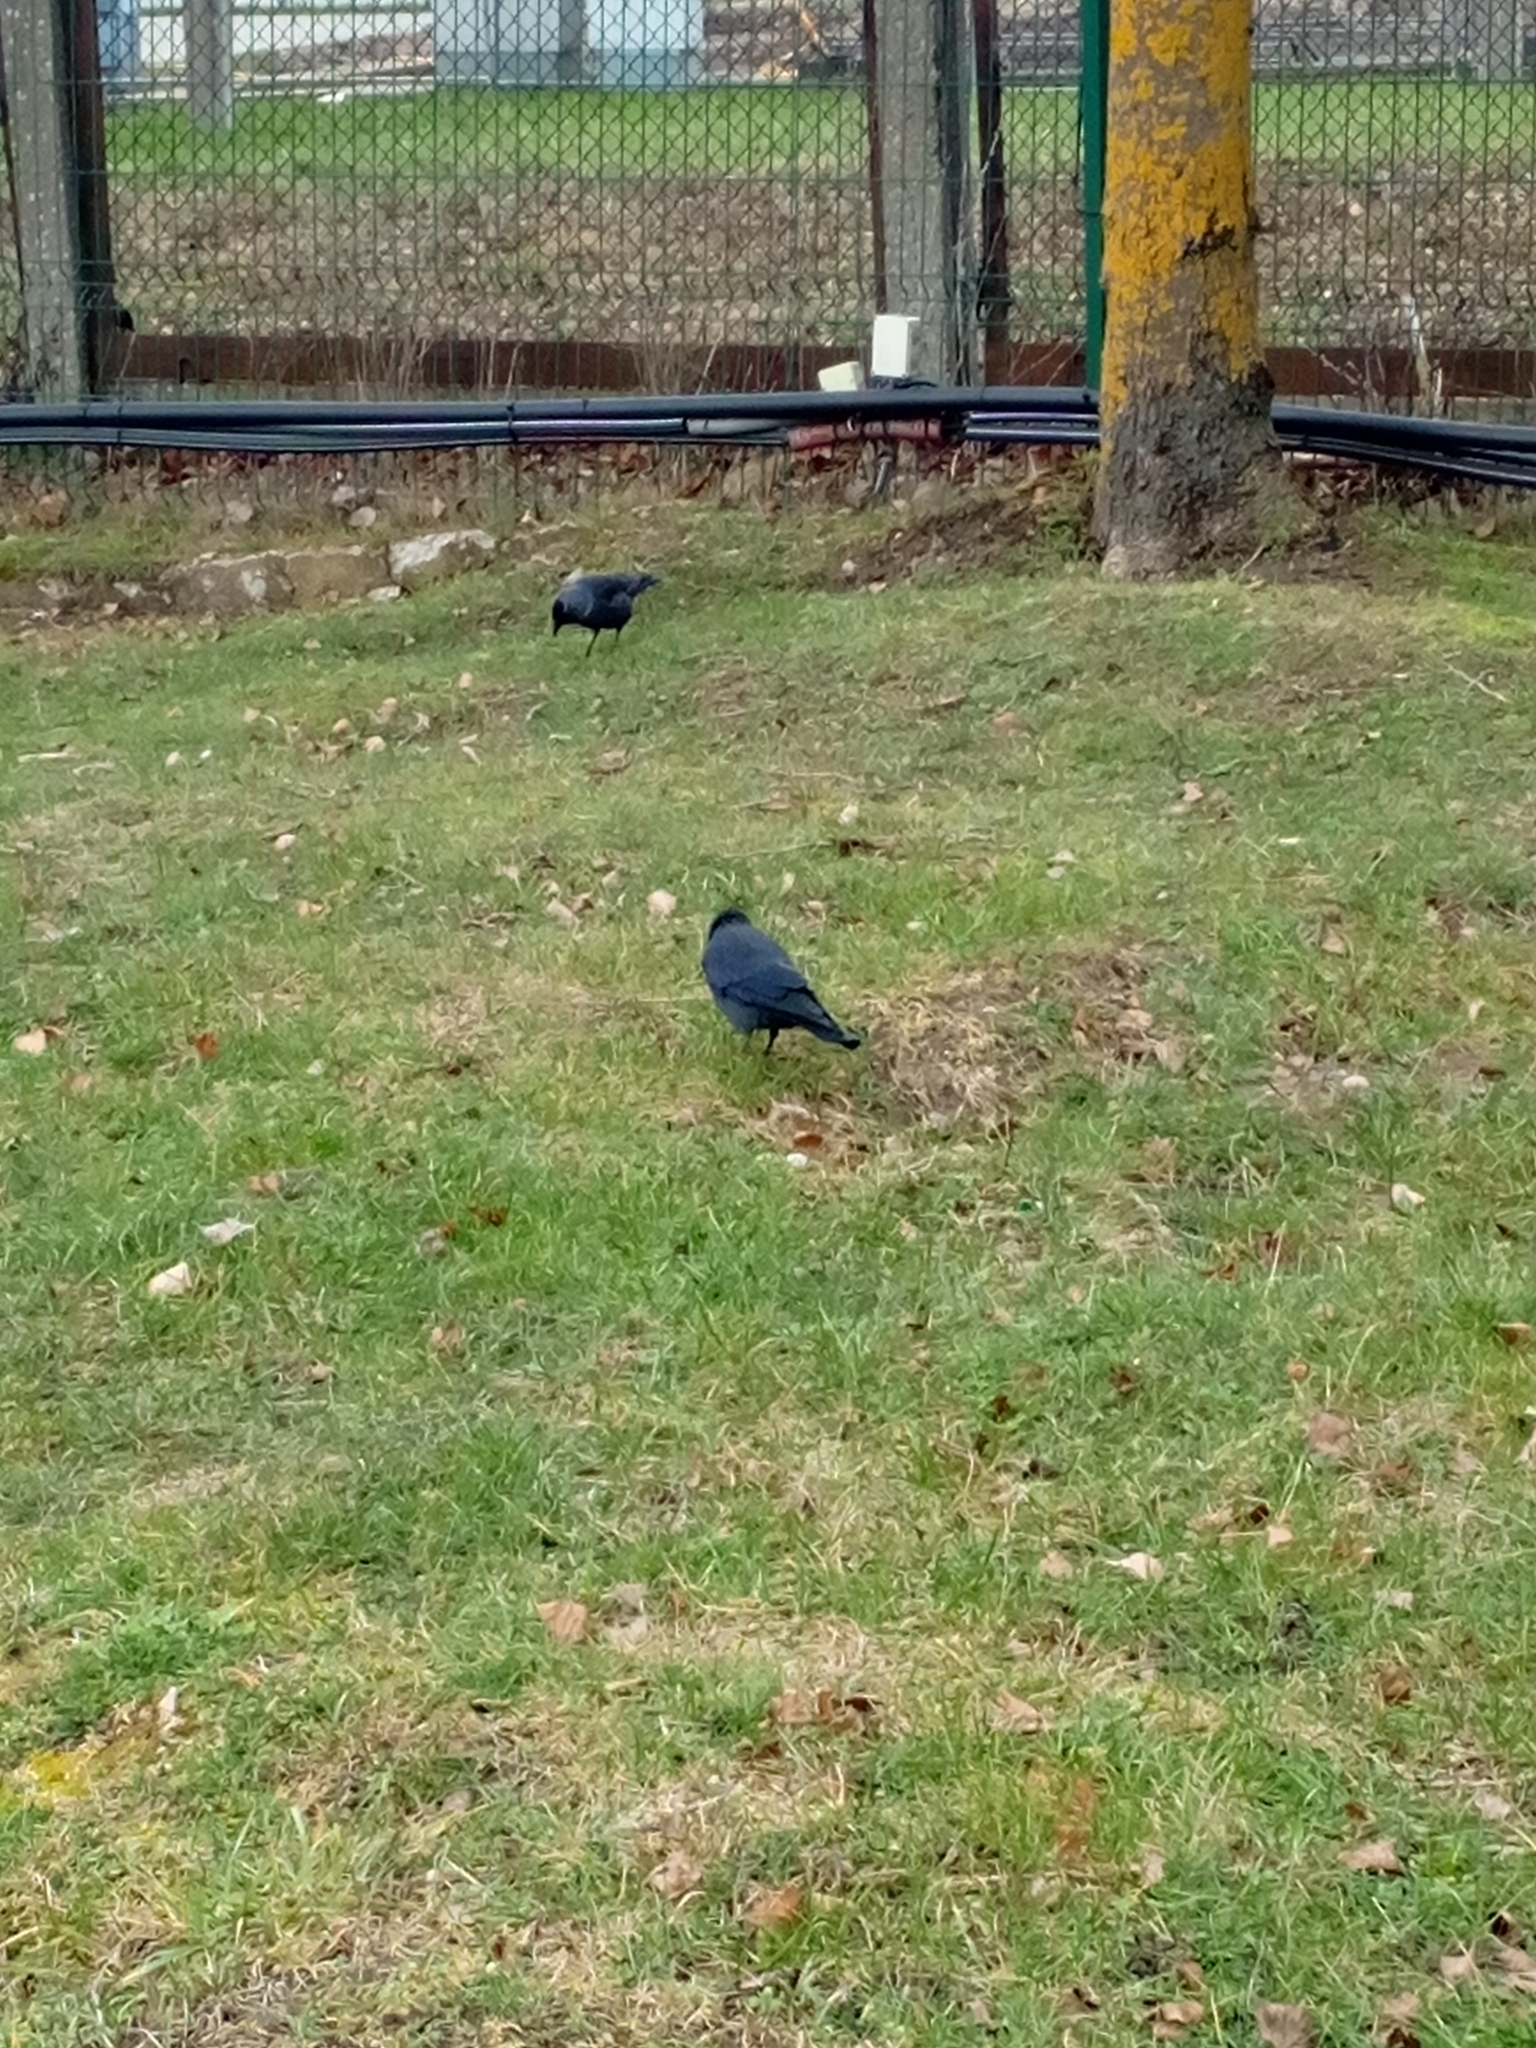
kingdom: Animalia
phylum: Chordata
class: Aves
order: Passeriformes
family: Corvidae
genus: Coloeus
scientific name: Coloeus monedula
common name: Western jackdaw
